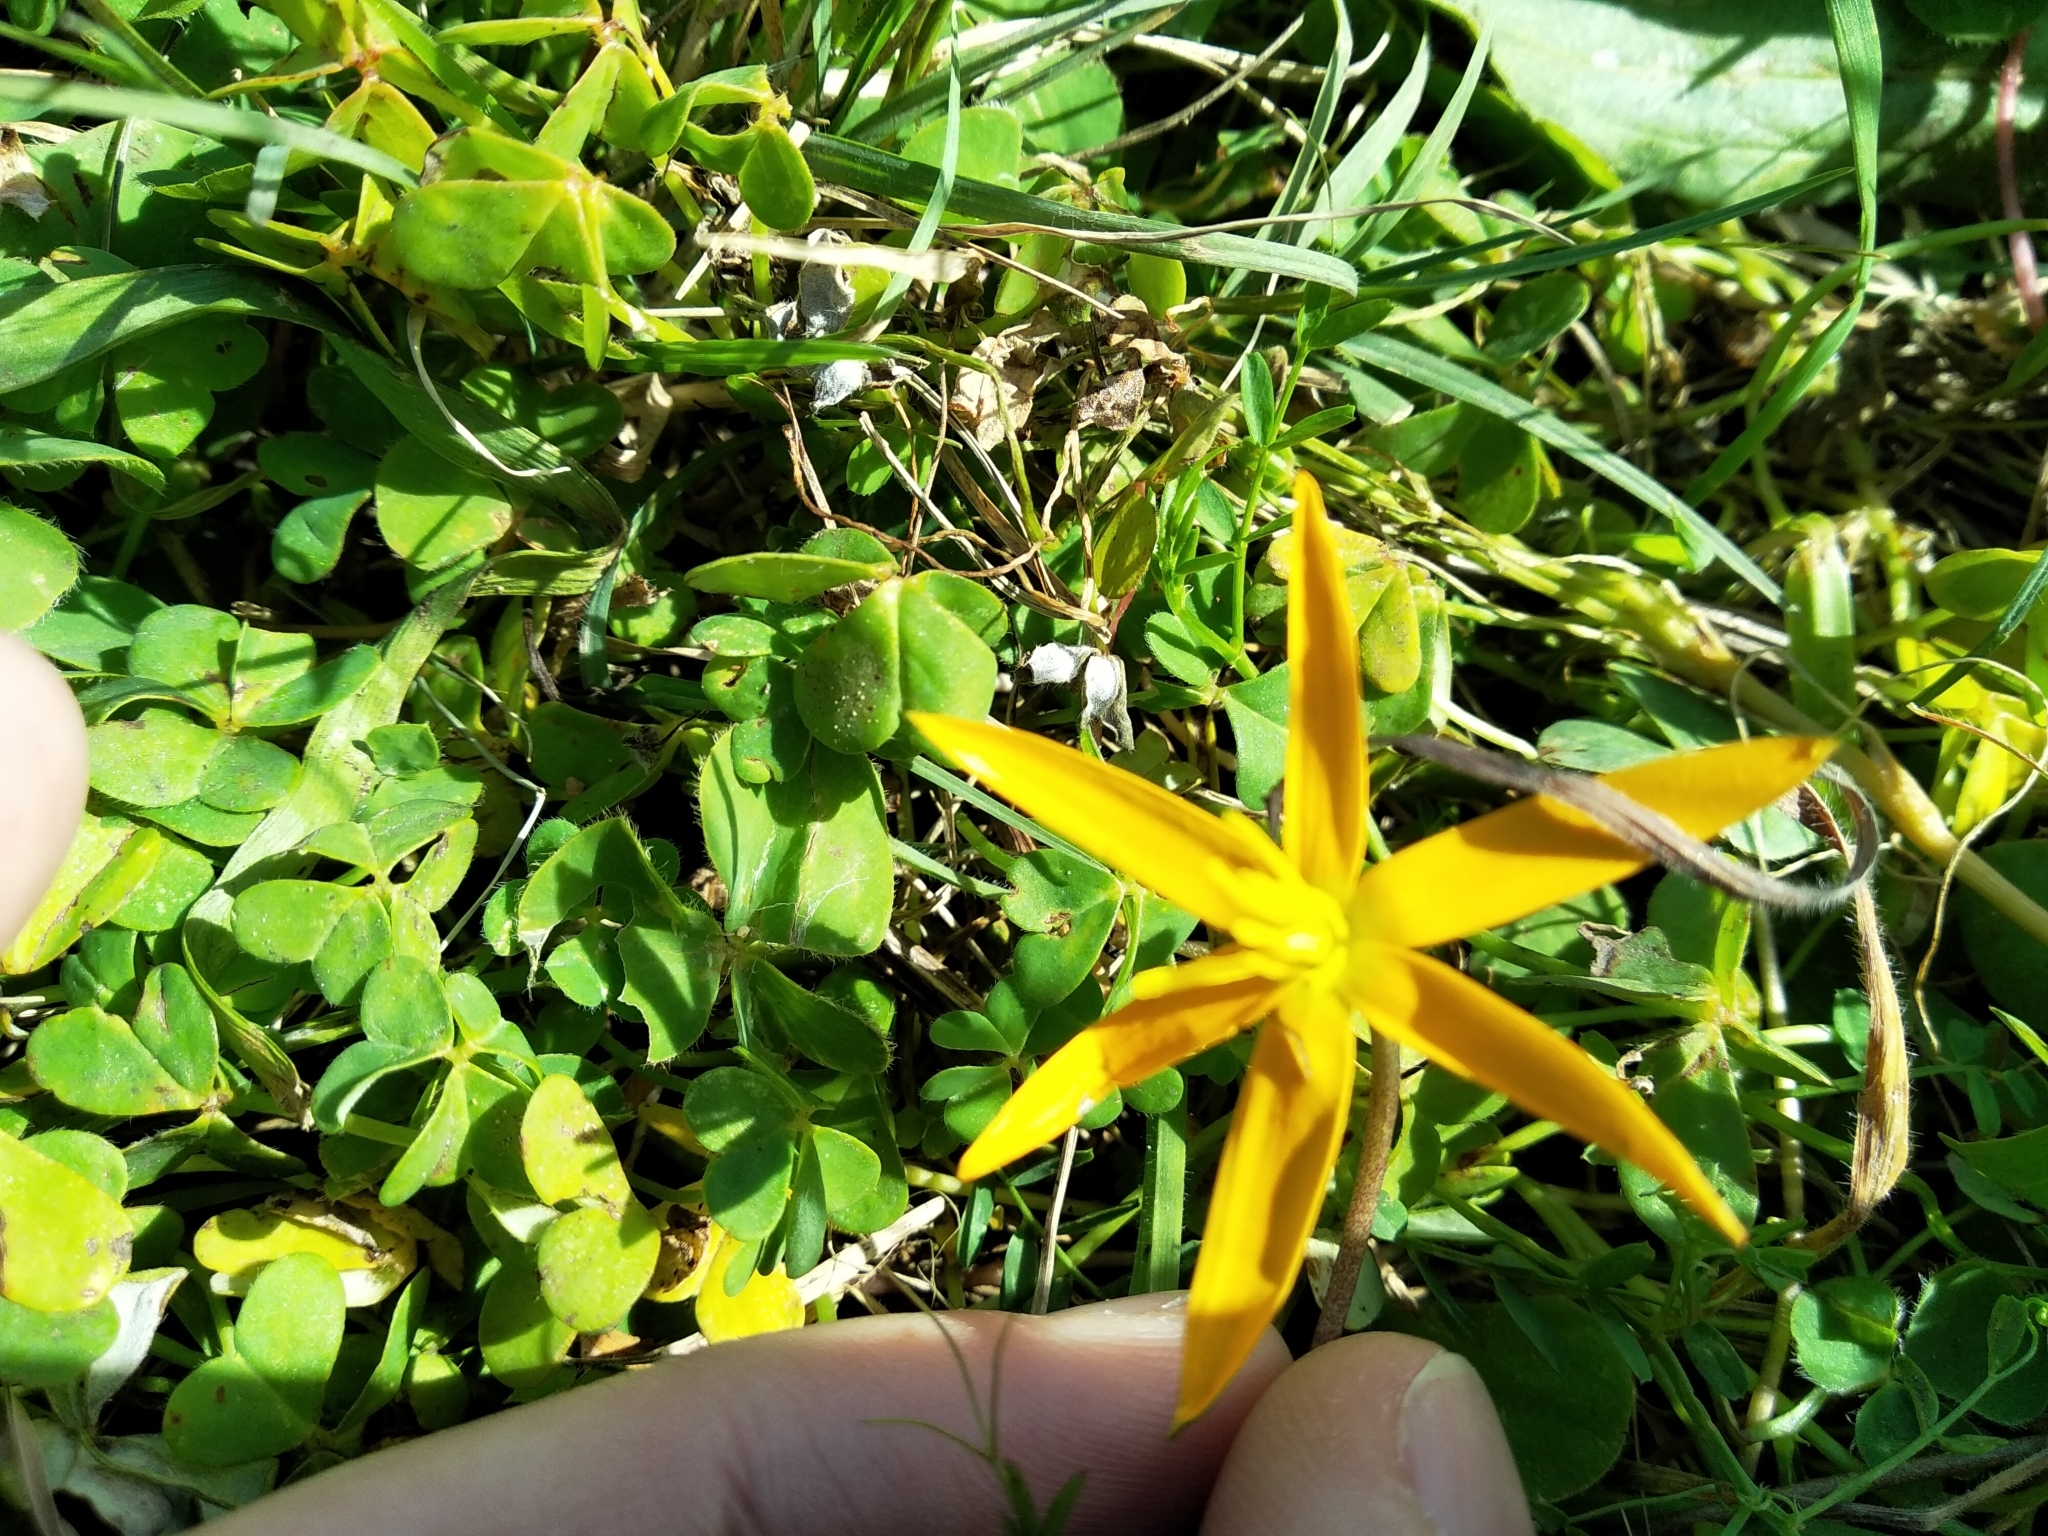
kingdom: Plantae
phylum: Tracheophyta
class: Liliopsida
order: Asparagales
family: Hypoxidaceae
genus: Pauridia
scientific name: Pauridia serrata
